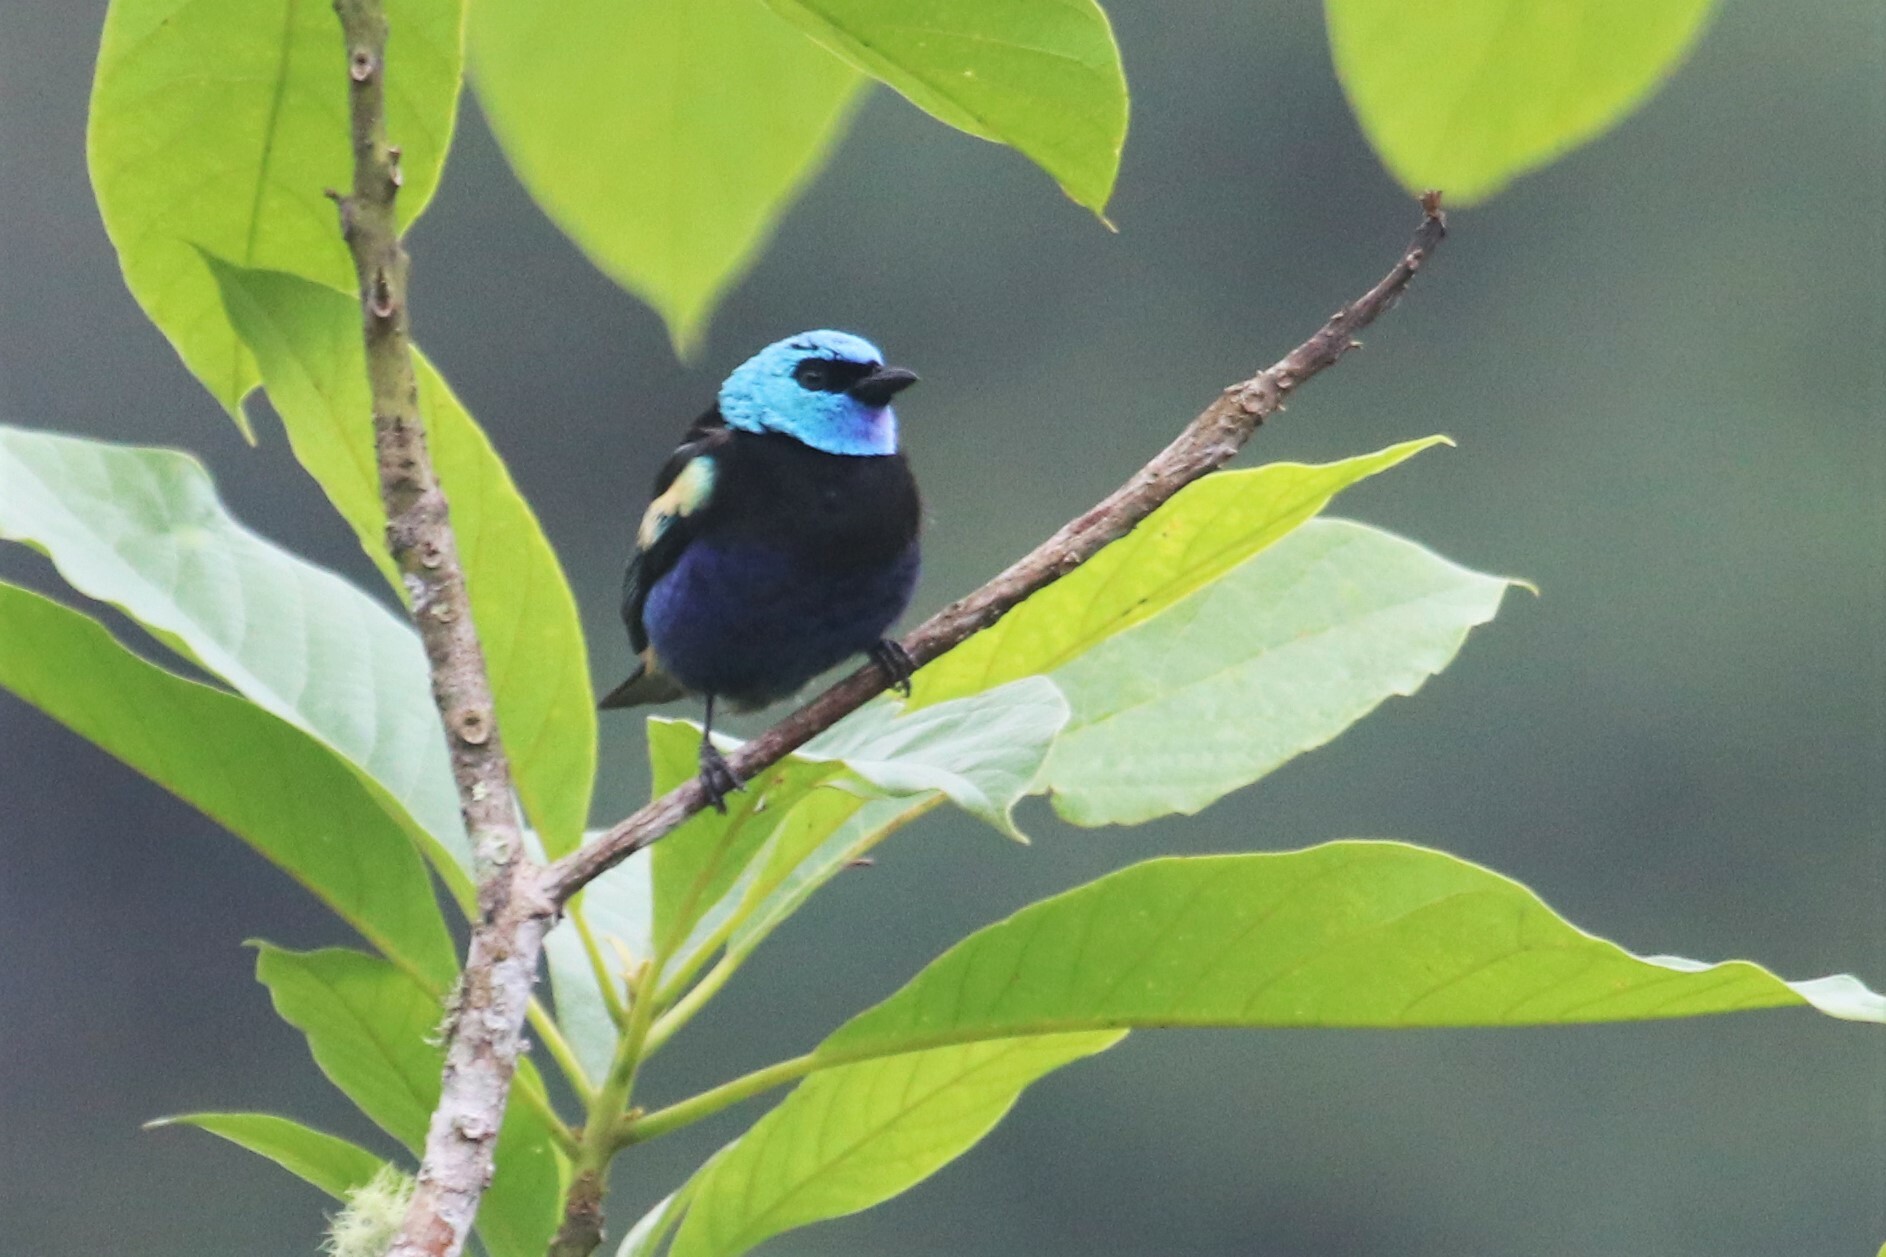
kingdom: Animalia
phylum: Chordata
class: Aves
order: Passeriformes
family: Thraupidae
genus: Stilpnia
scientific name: Stilpnia cyanicollis
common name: Blue-necked tanager
